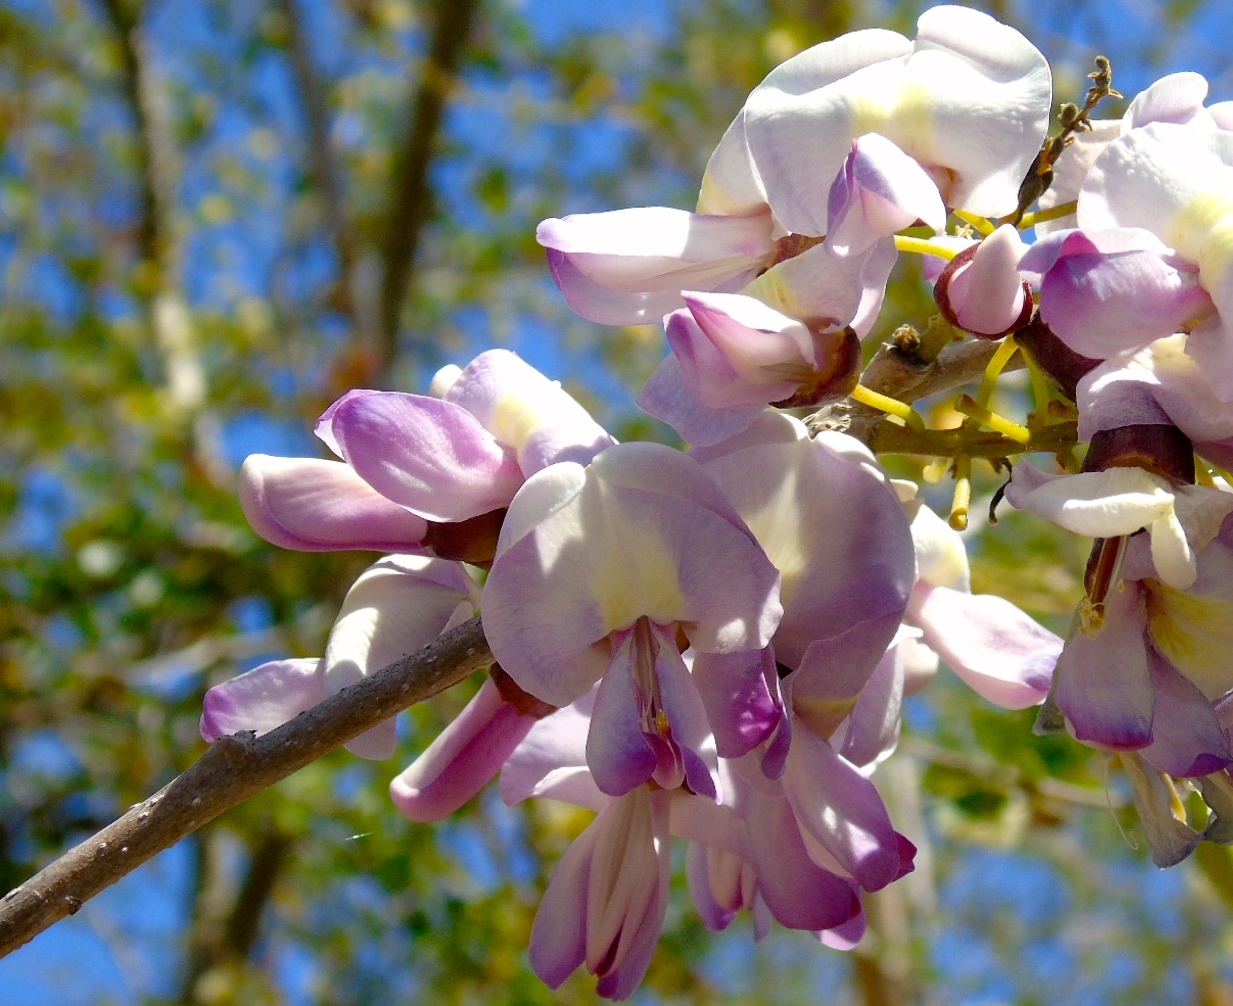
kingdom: Plantae
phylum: Tracheophyta
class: Magnoliopsida
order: Fabales
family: Fabaceae
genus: Gliricidia
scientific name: Gliricidia sepium
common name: Quickstick
